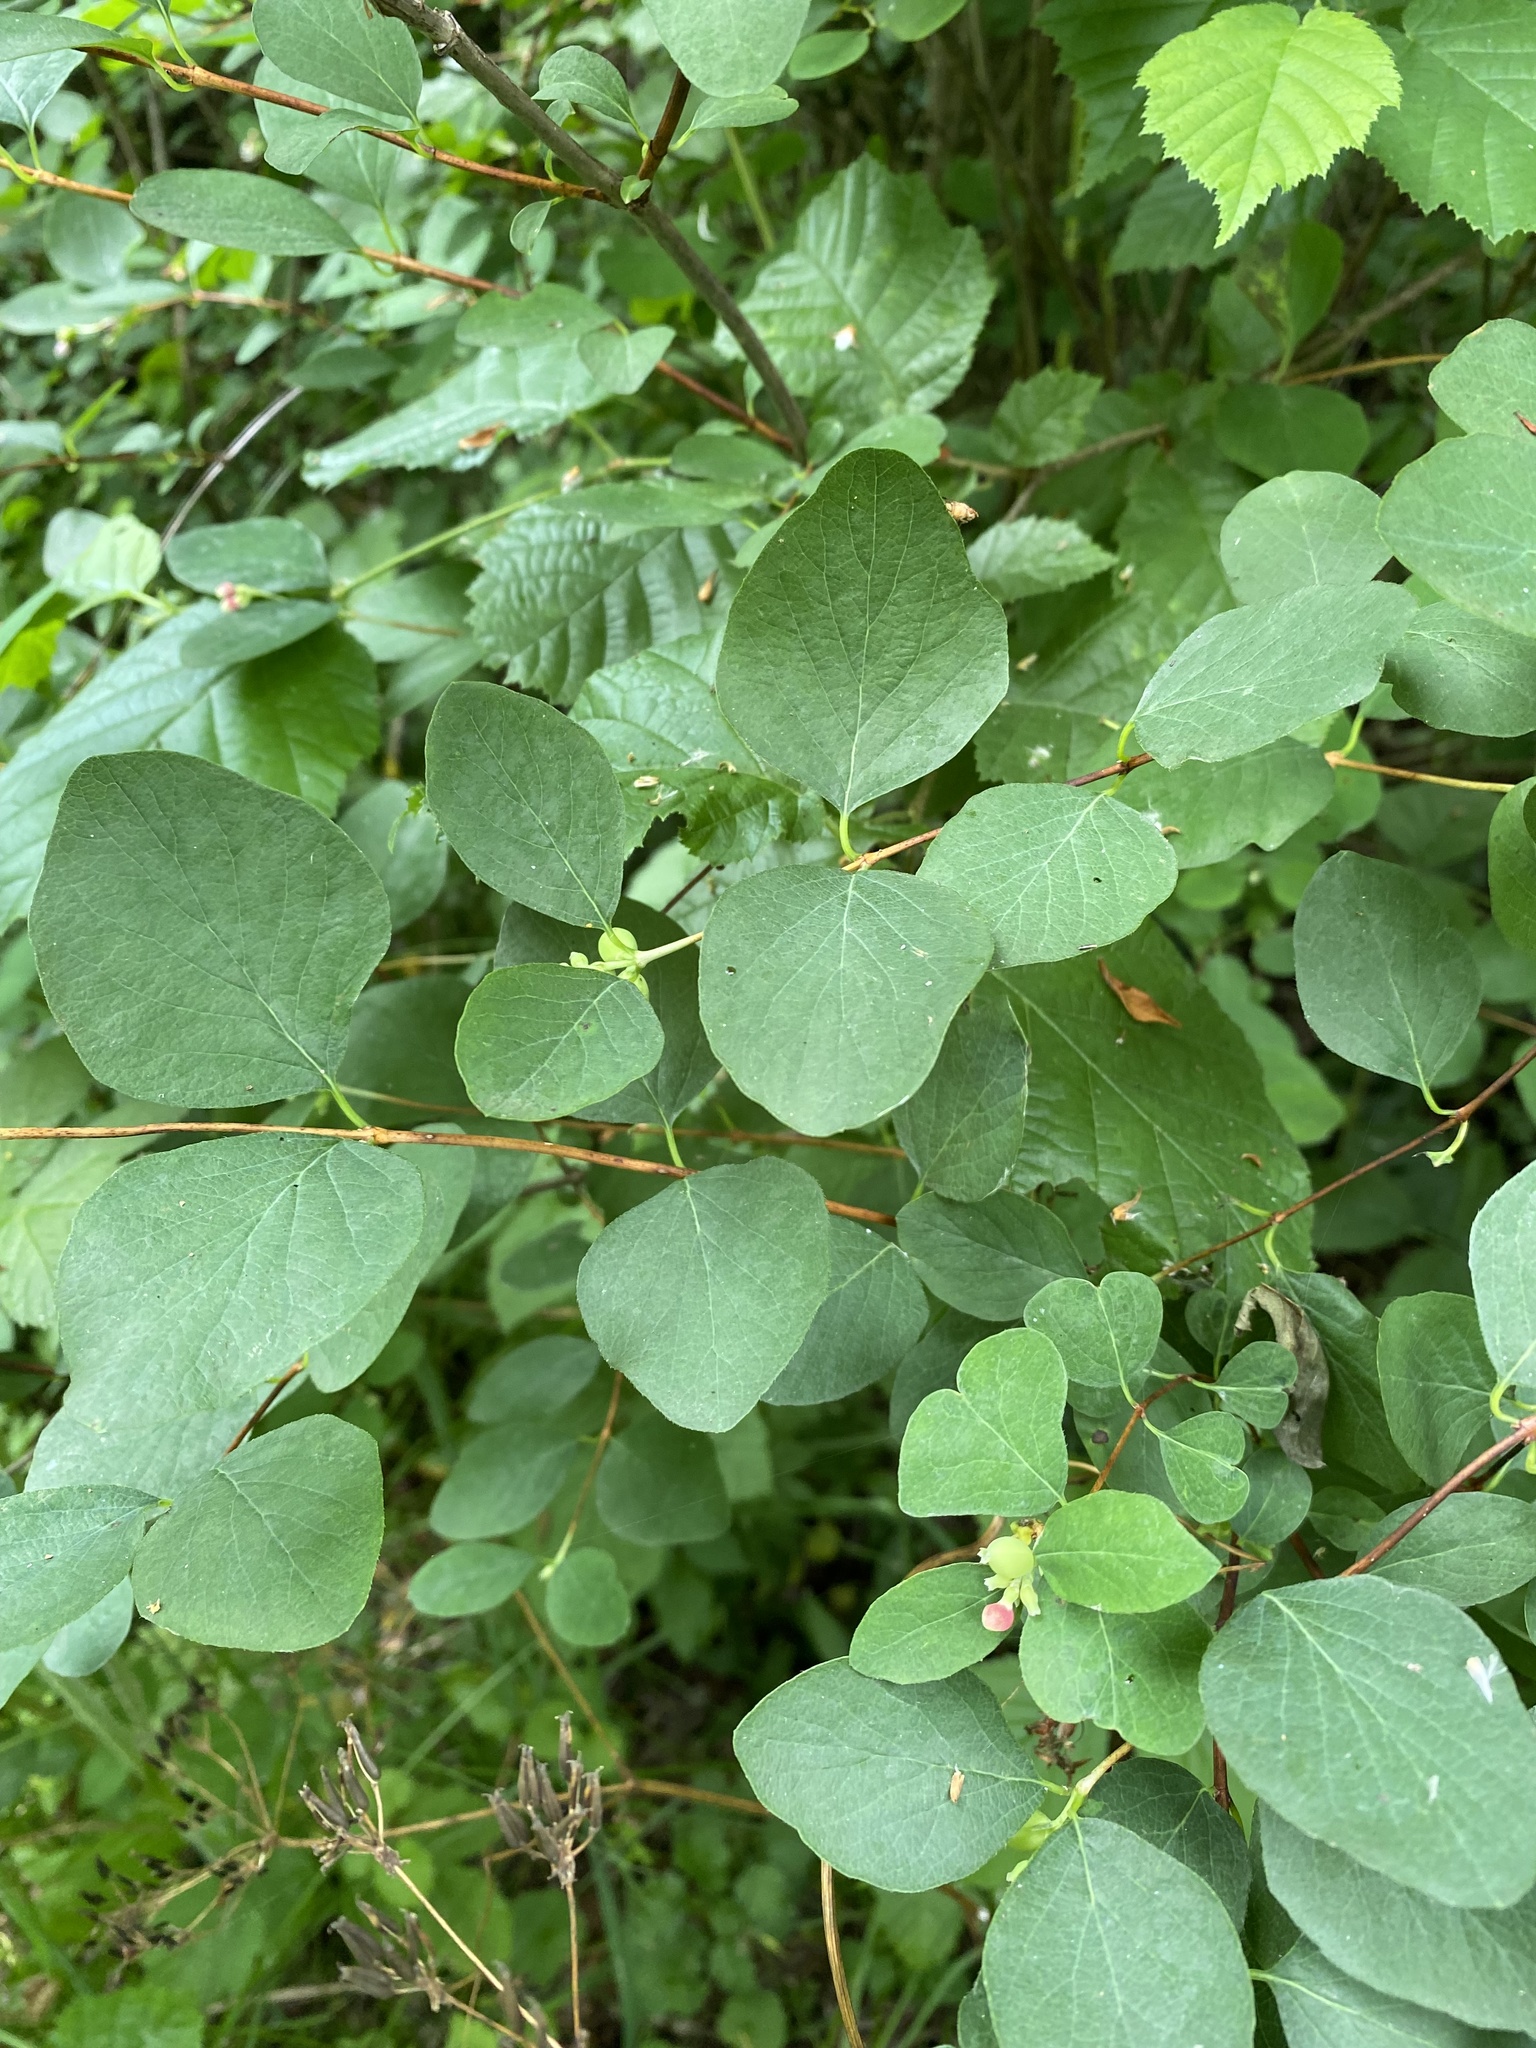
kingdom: Plantae
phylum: Tracheophyta
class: Magnoliopsida
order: Dipsacales
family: Caprifoliaceae
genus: Symphoricarpos
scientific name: Symphoricarpos albus
